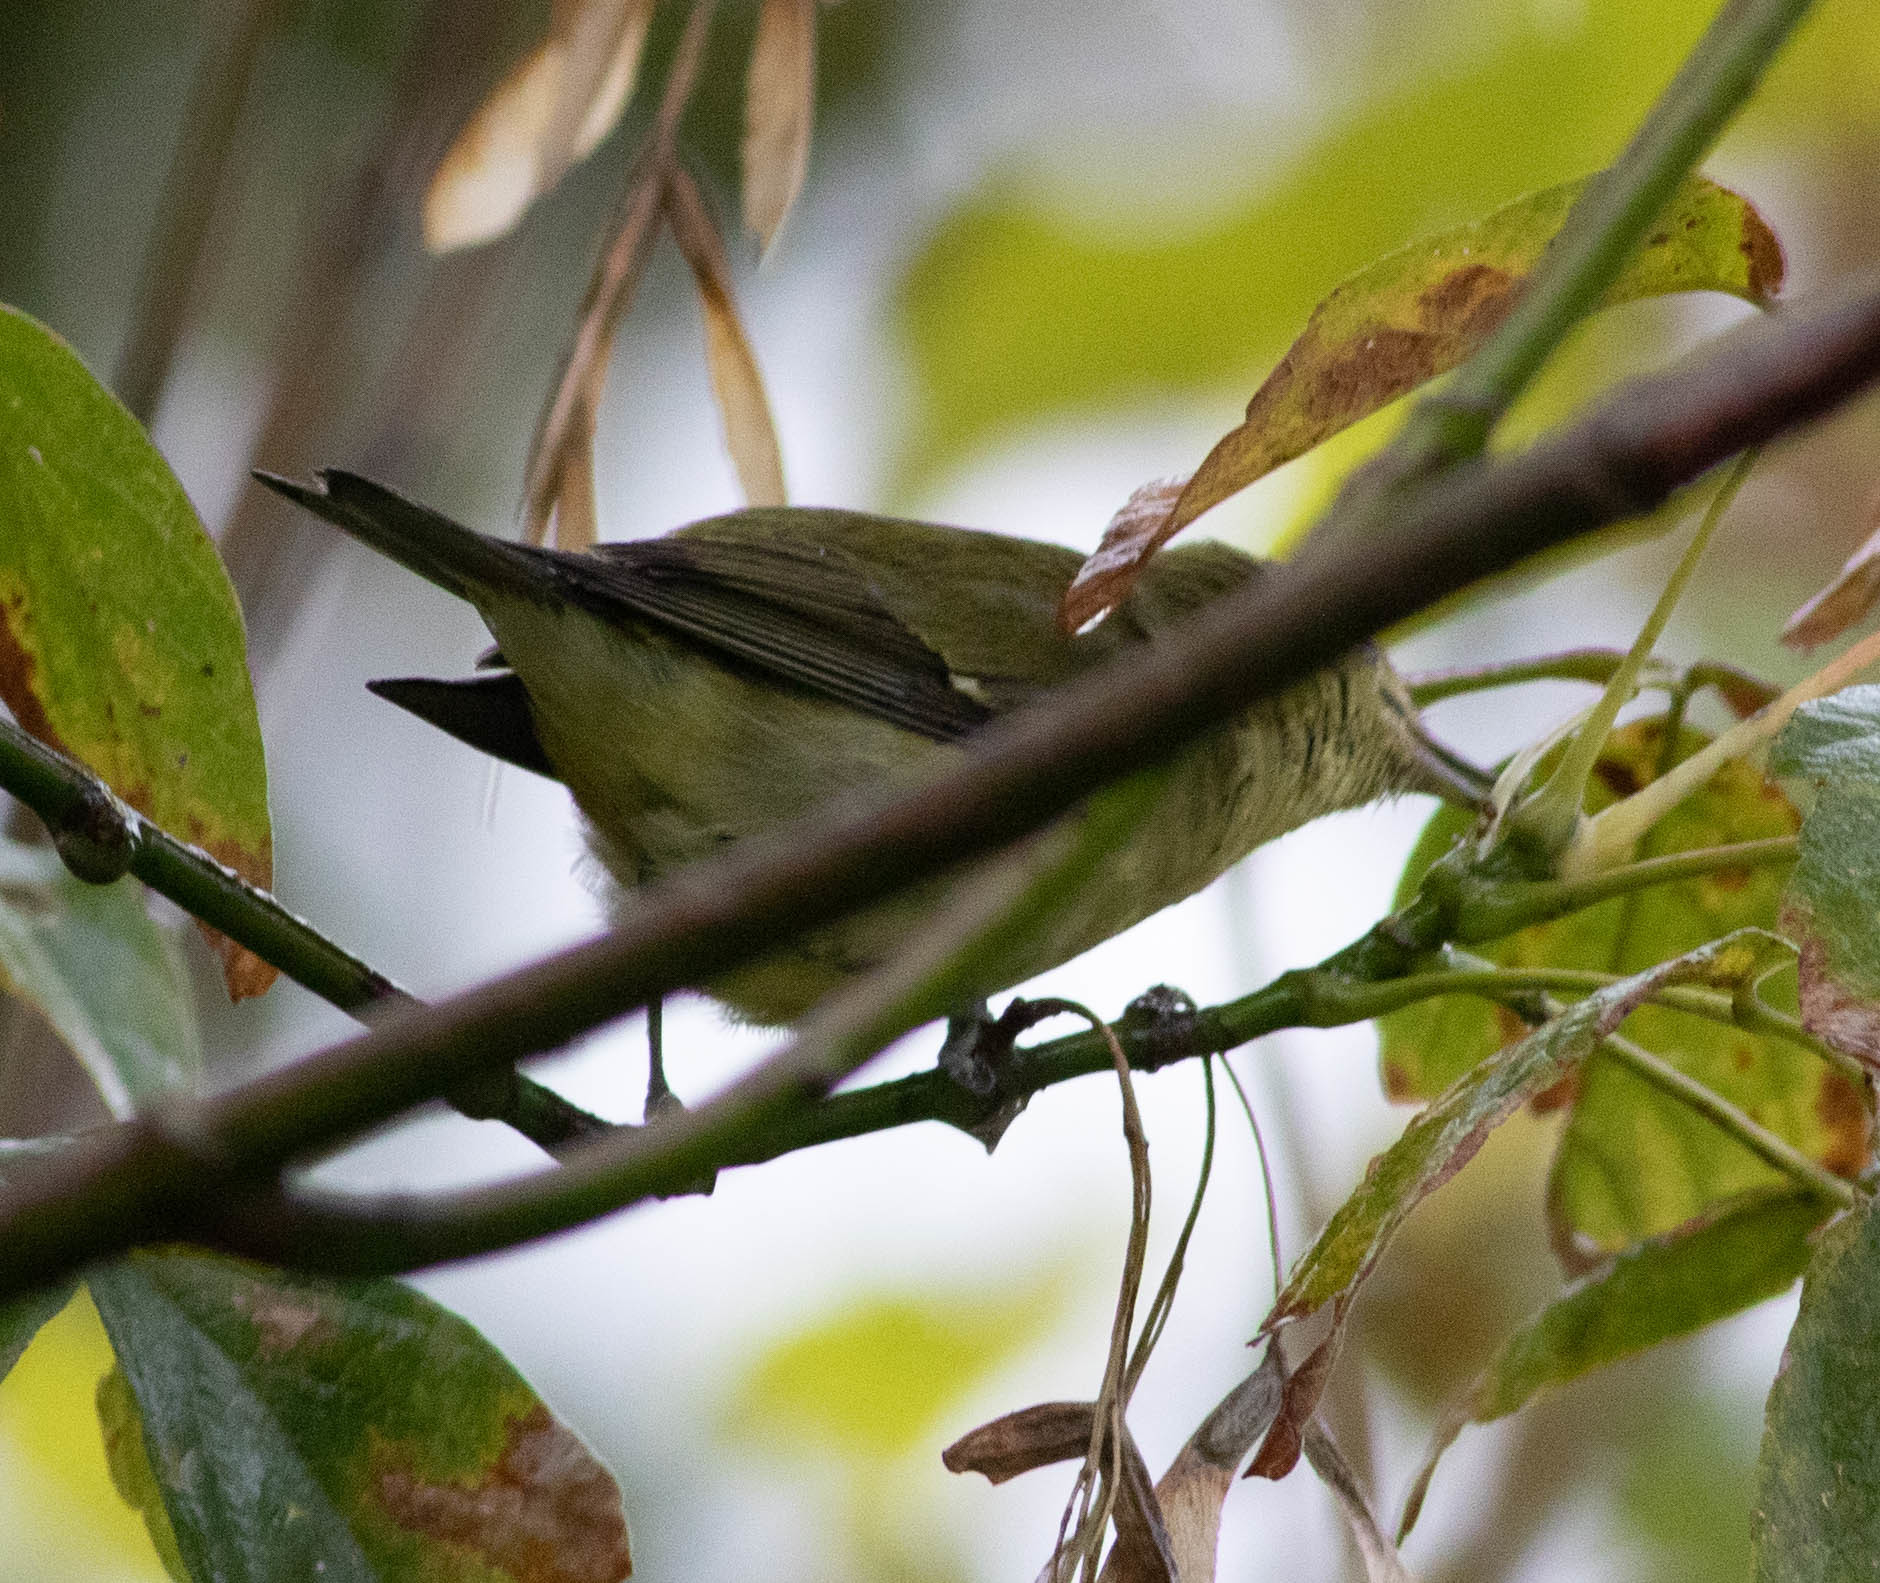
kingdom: Animalia
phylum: Chordata
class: Aves
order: Passeriformes
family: Parulidae
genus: Leiothlypis
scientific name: Leiothlypis peregrina
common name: Tennessee warbler
